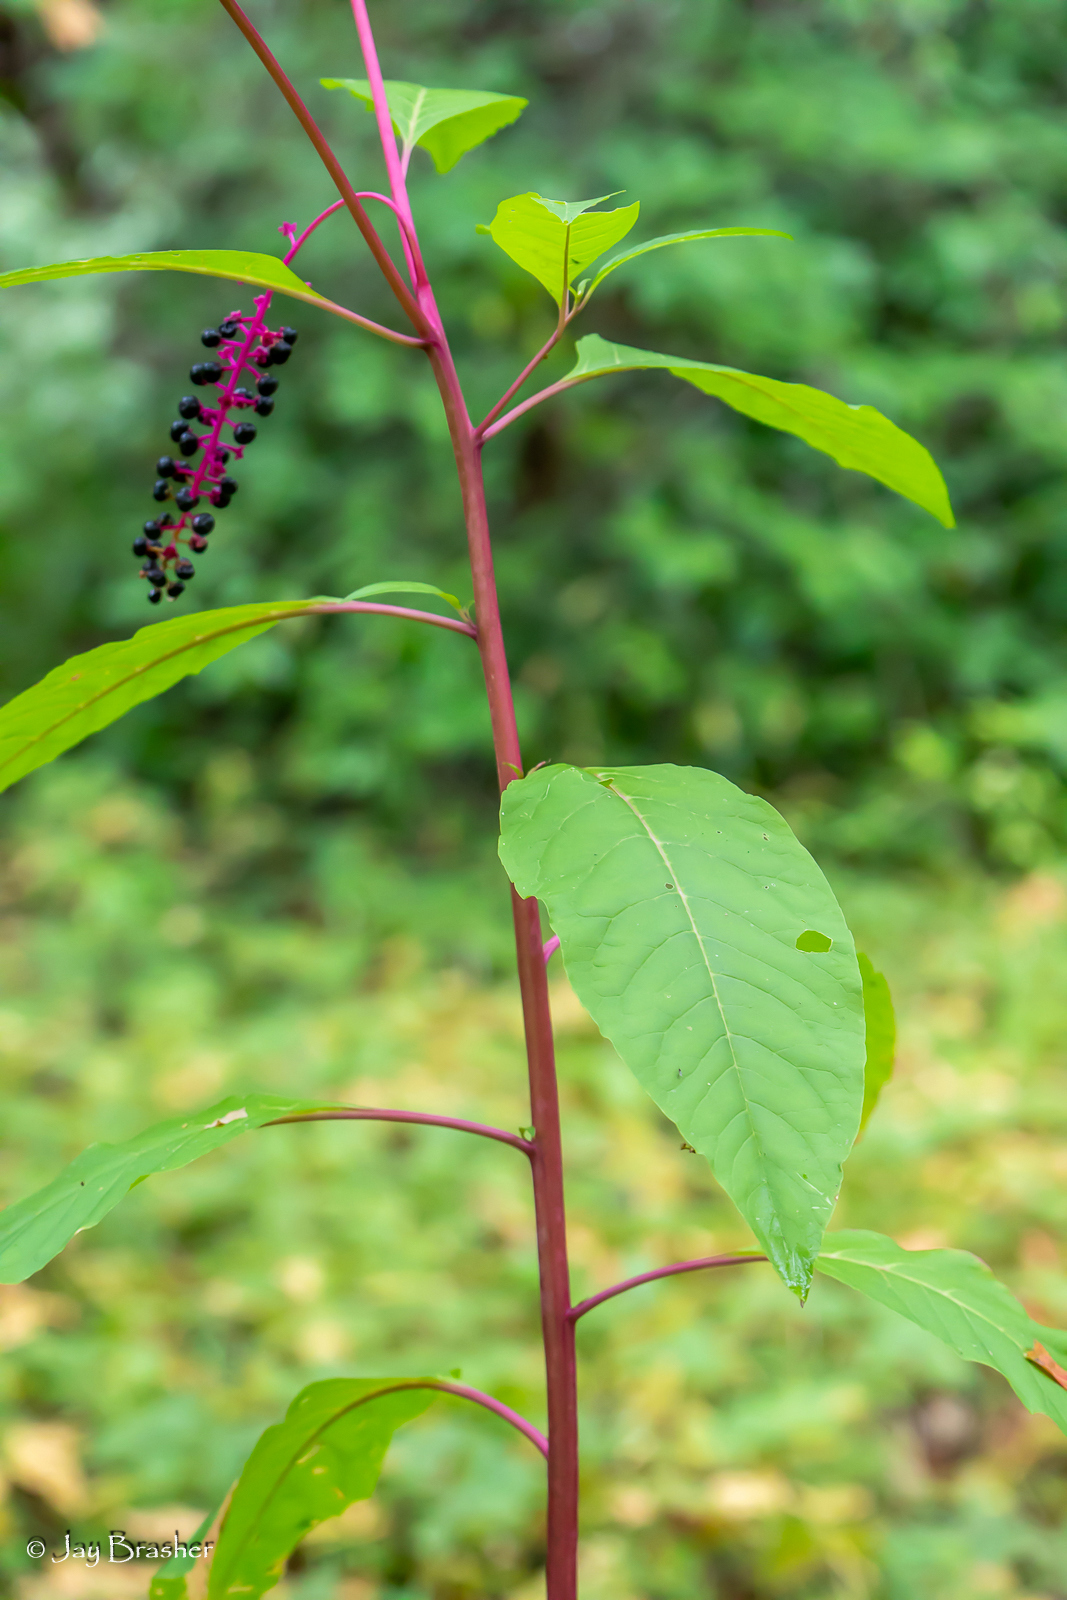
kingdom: Plantae
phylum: Tracheophyta
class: Magnoliopsida
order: Caryophyllales
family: Phytolaccaceae
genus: Phytolacca
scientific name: Phytolacca americana
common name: American pokeweed
